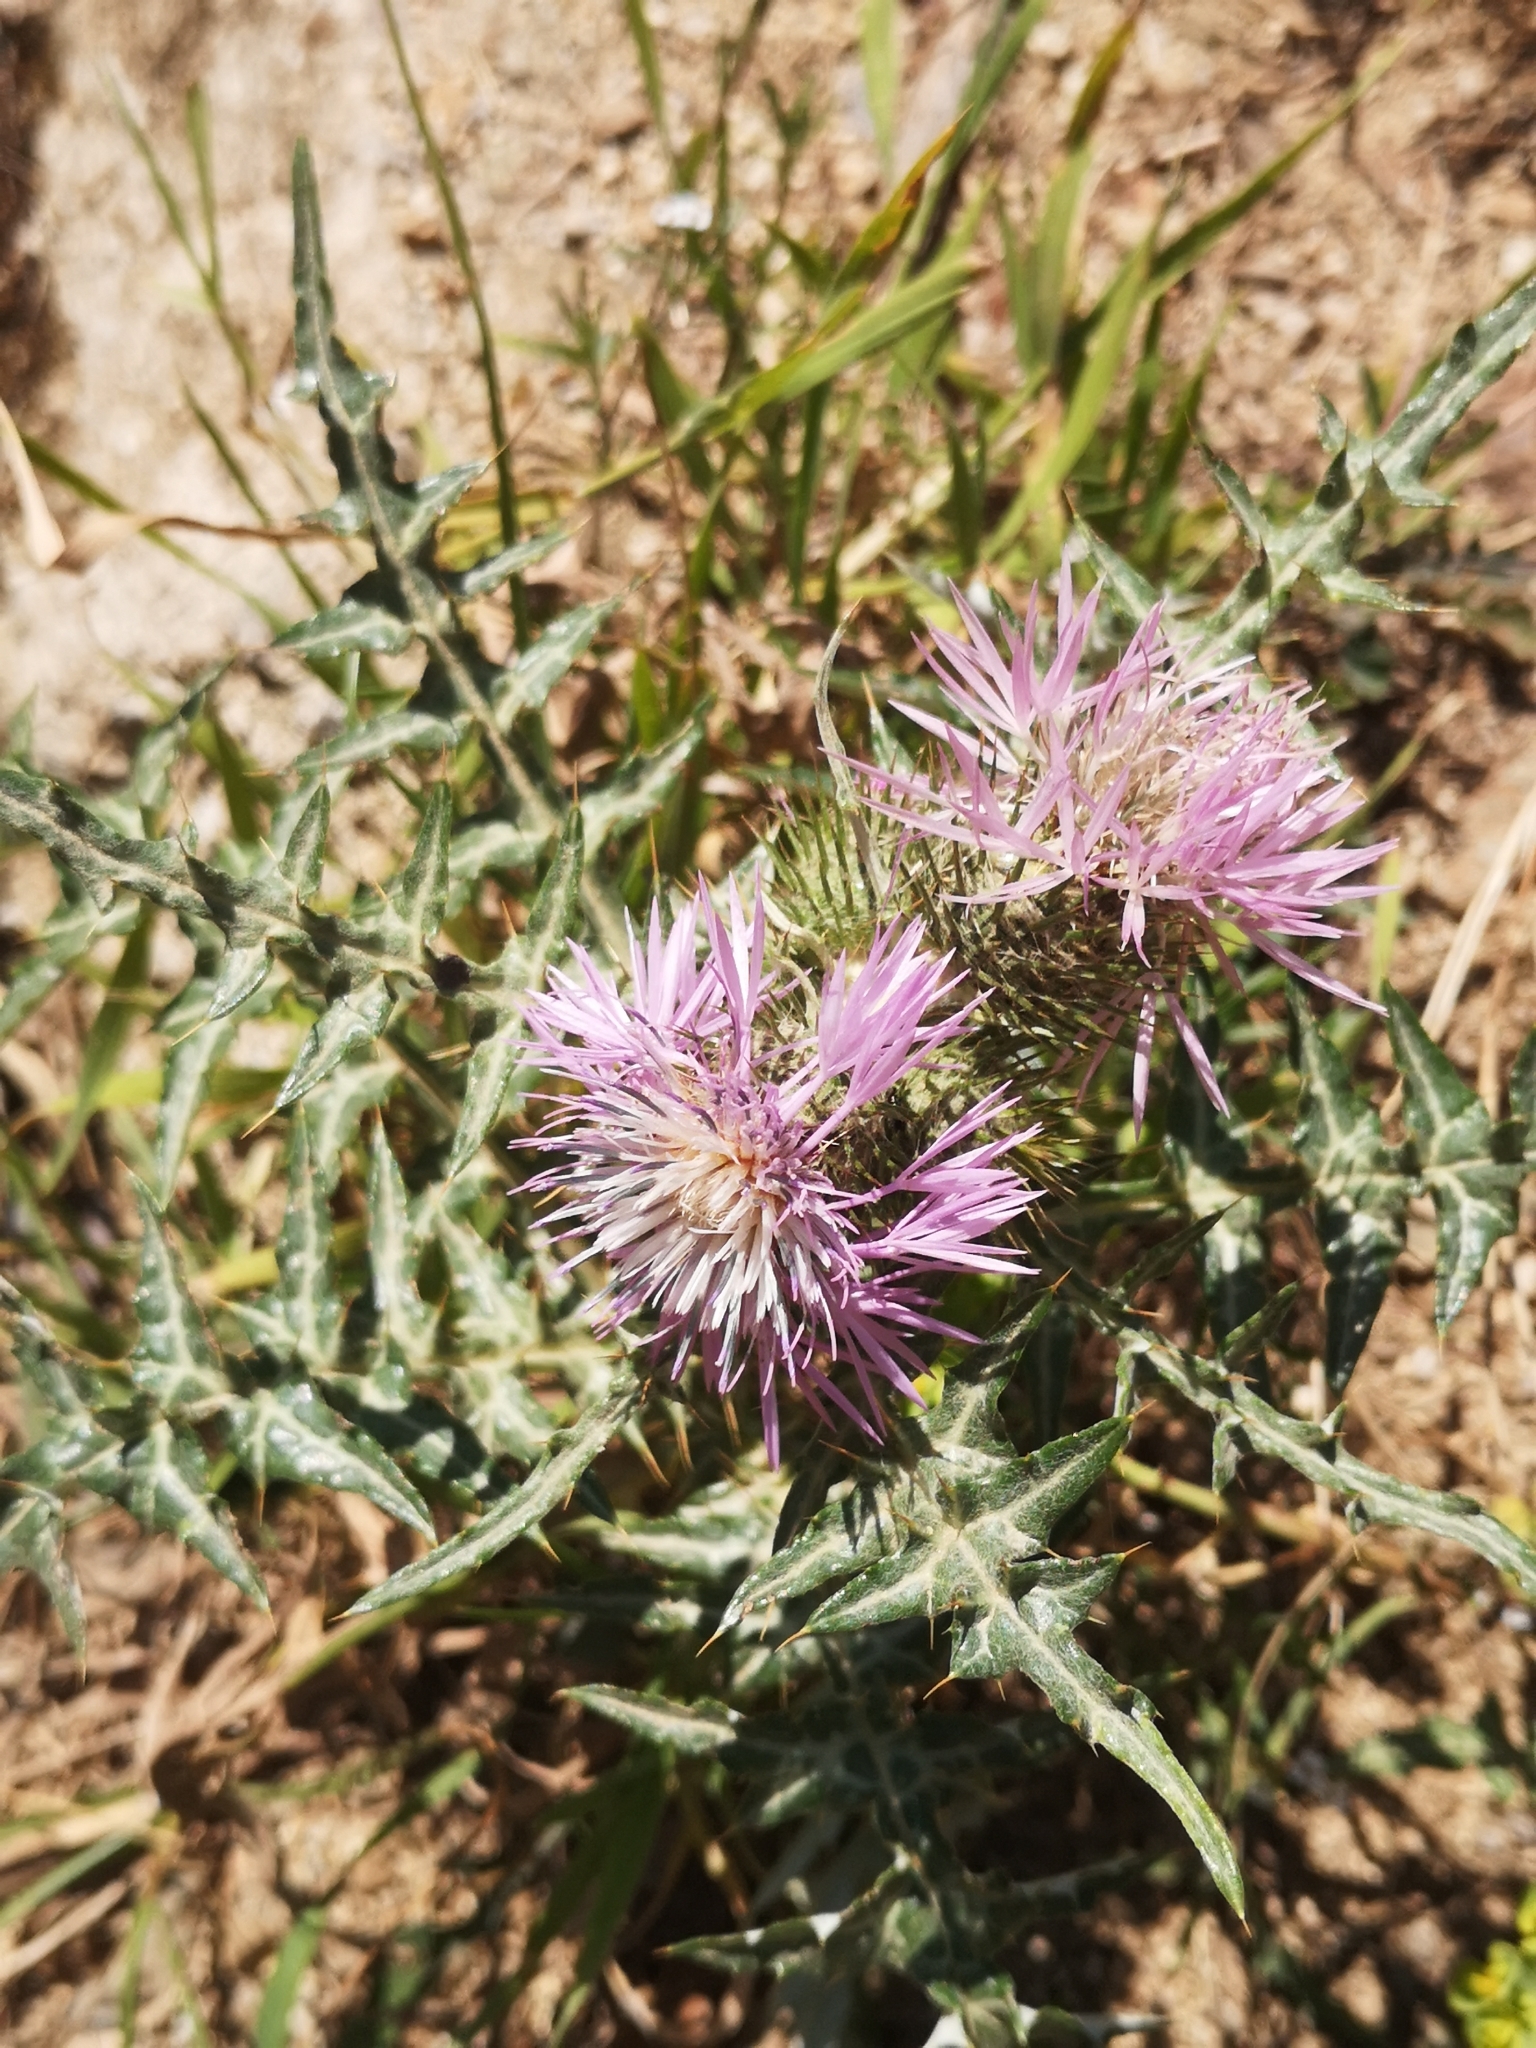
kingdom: Plantae
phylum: Tracheophyta
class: Magnoliopsida
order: Asterales
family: Asteraceae
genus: Galactites
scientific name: Galactites tomentosa
